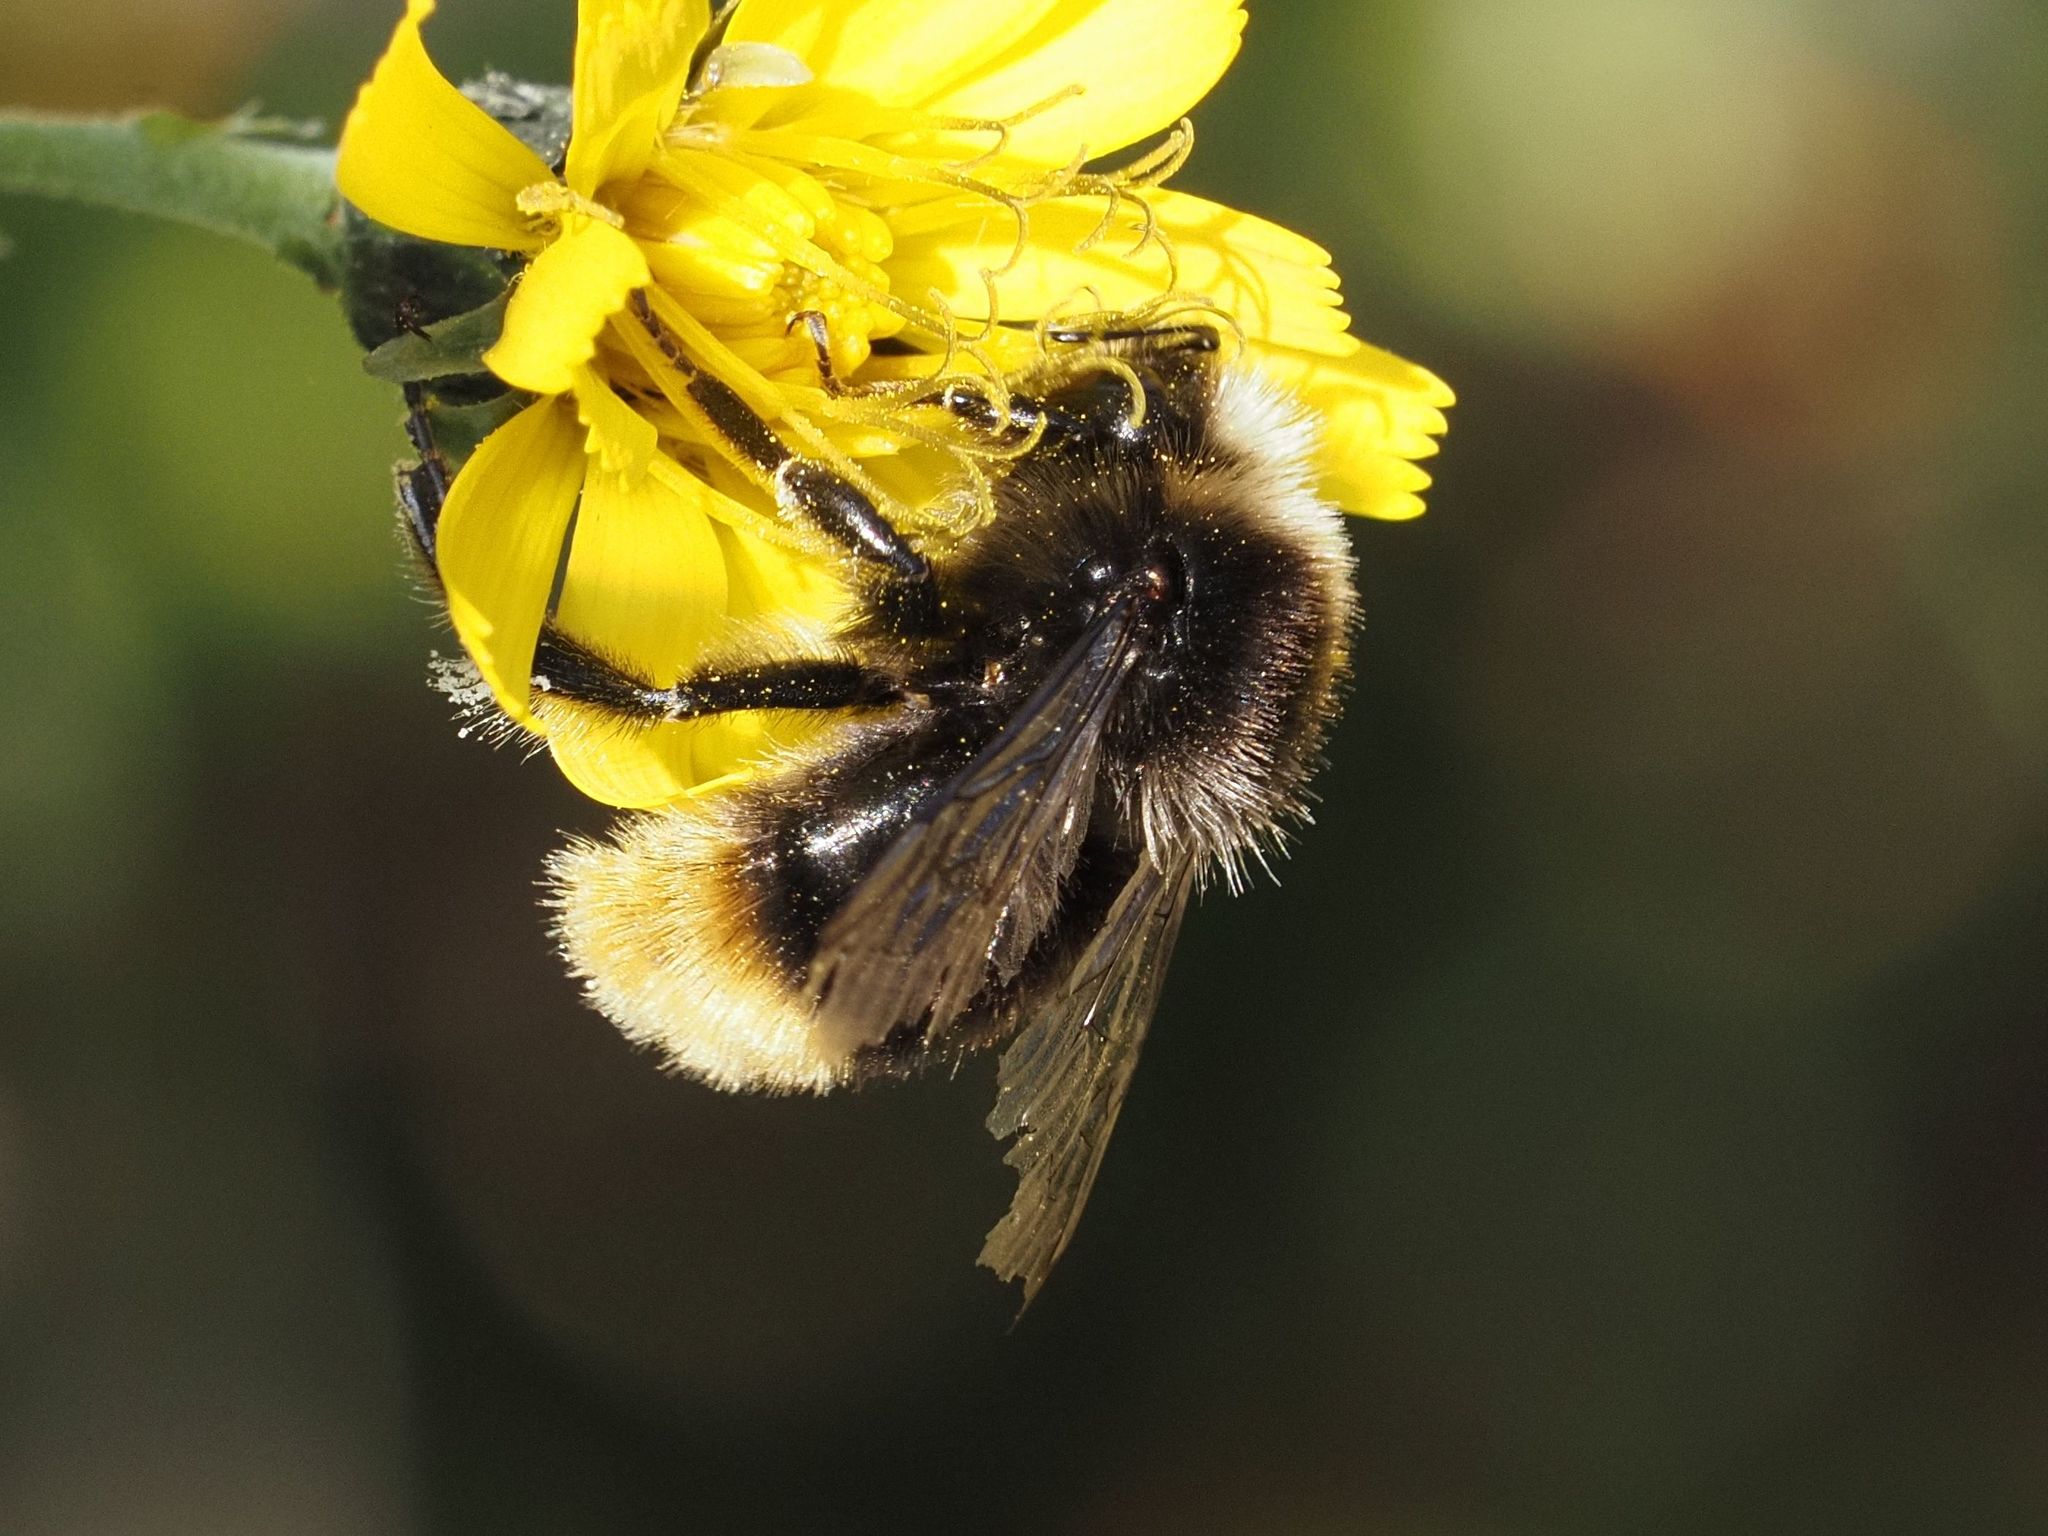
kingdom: Animalia
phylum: Arthropoda
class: Insecta
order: Hymenoptera
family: Apidae
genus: Bombus
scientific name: Bombus lapidarius
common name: Large red-tailed humble-bee
